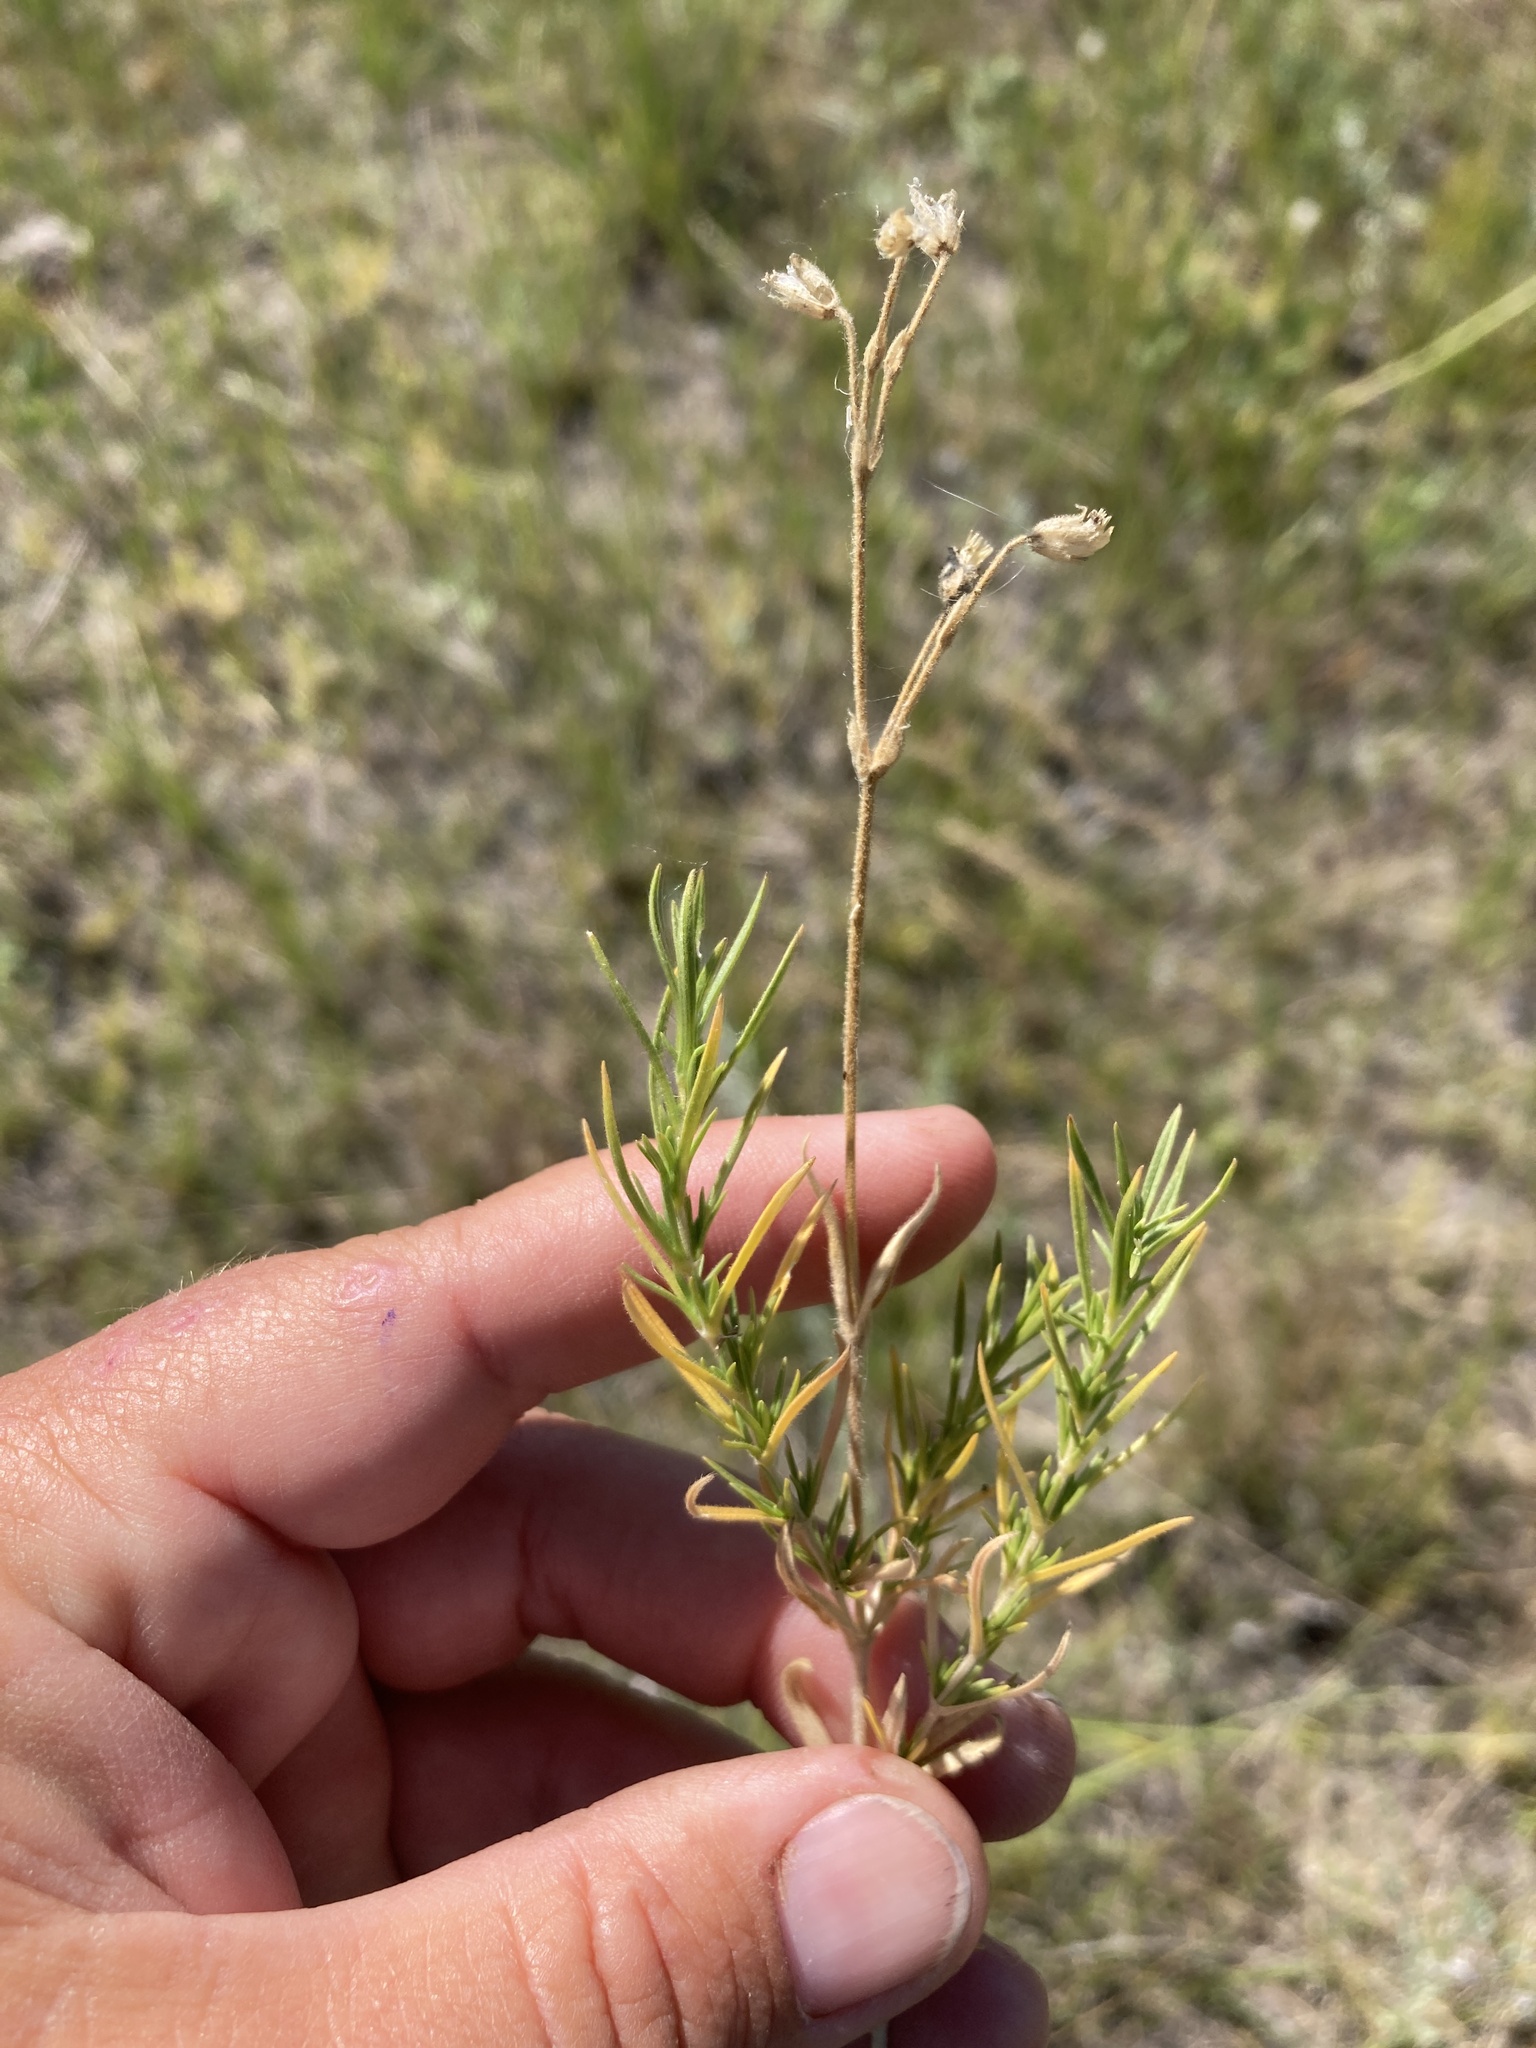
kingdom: Plantae
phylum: Tracheophyta
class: Magnoliopsida
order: Caryophyllales
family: Caryophyllaceae
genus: Cerastium
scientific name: Cerastium arvense
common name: Field mouse-ear
